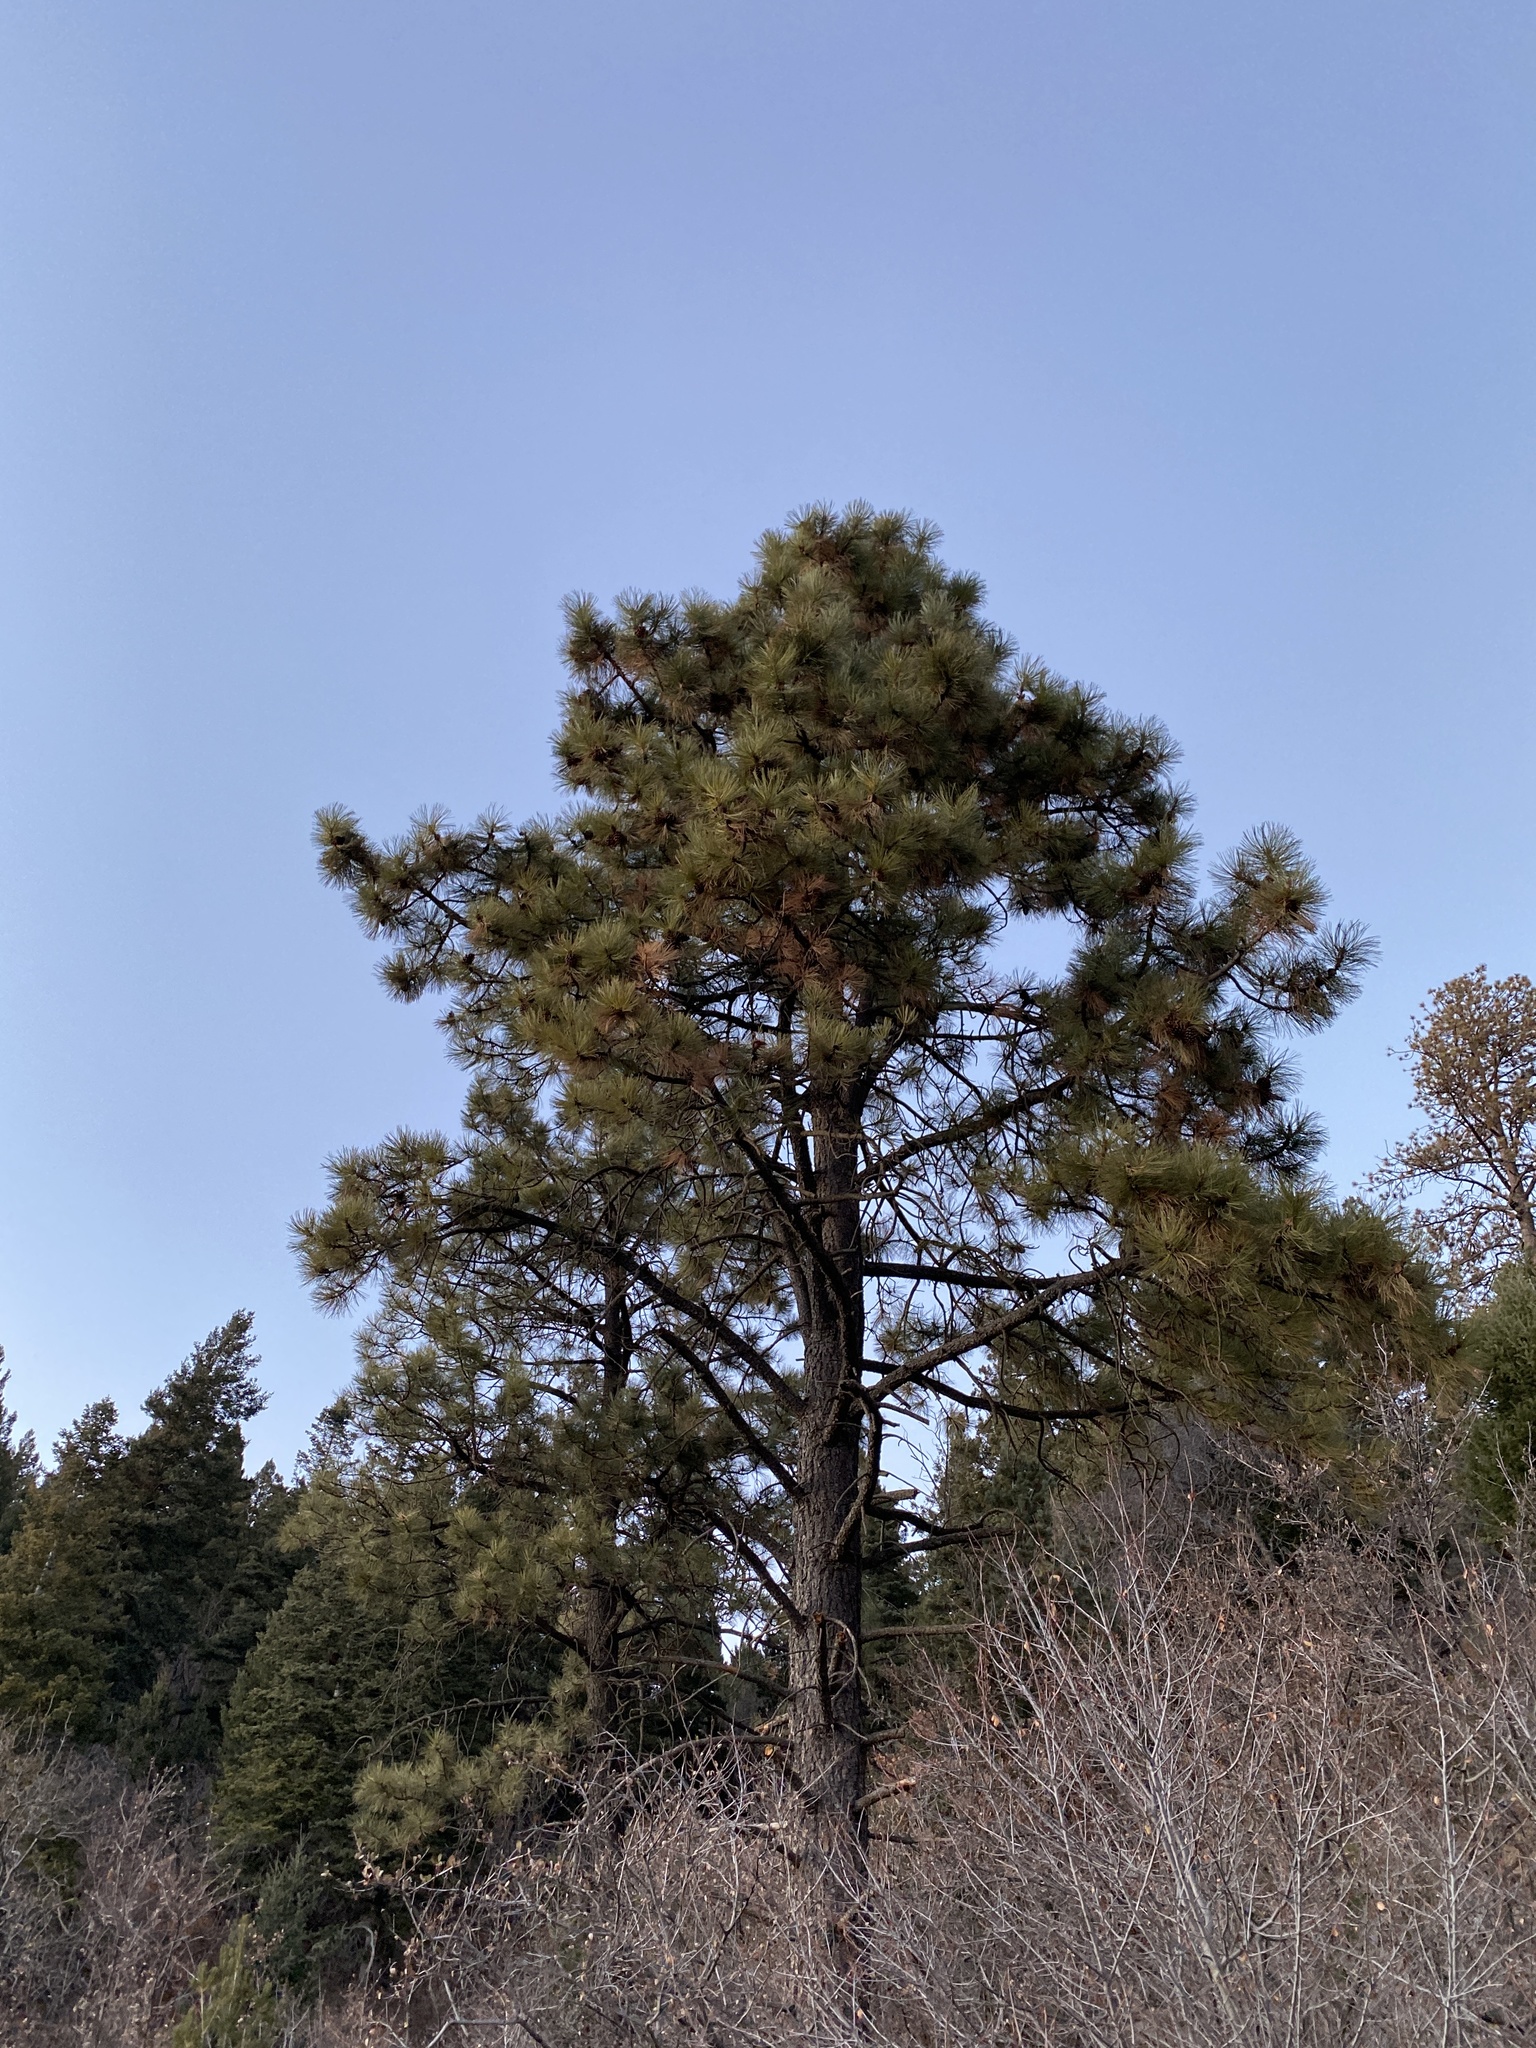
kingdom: Plantae
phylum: Tracheophyta
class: Pinopsida
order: Pinales
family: Pinaceae
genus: Pinus
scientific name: Pinus ponderosa
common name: Western yellow-pine
